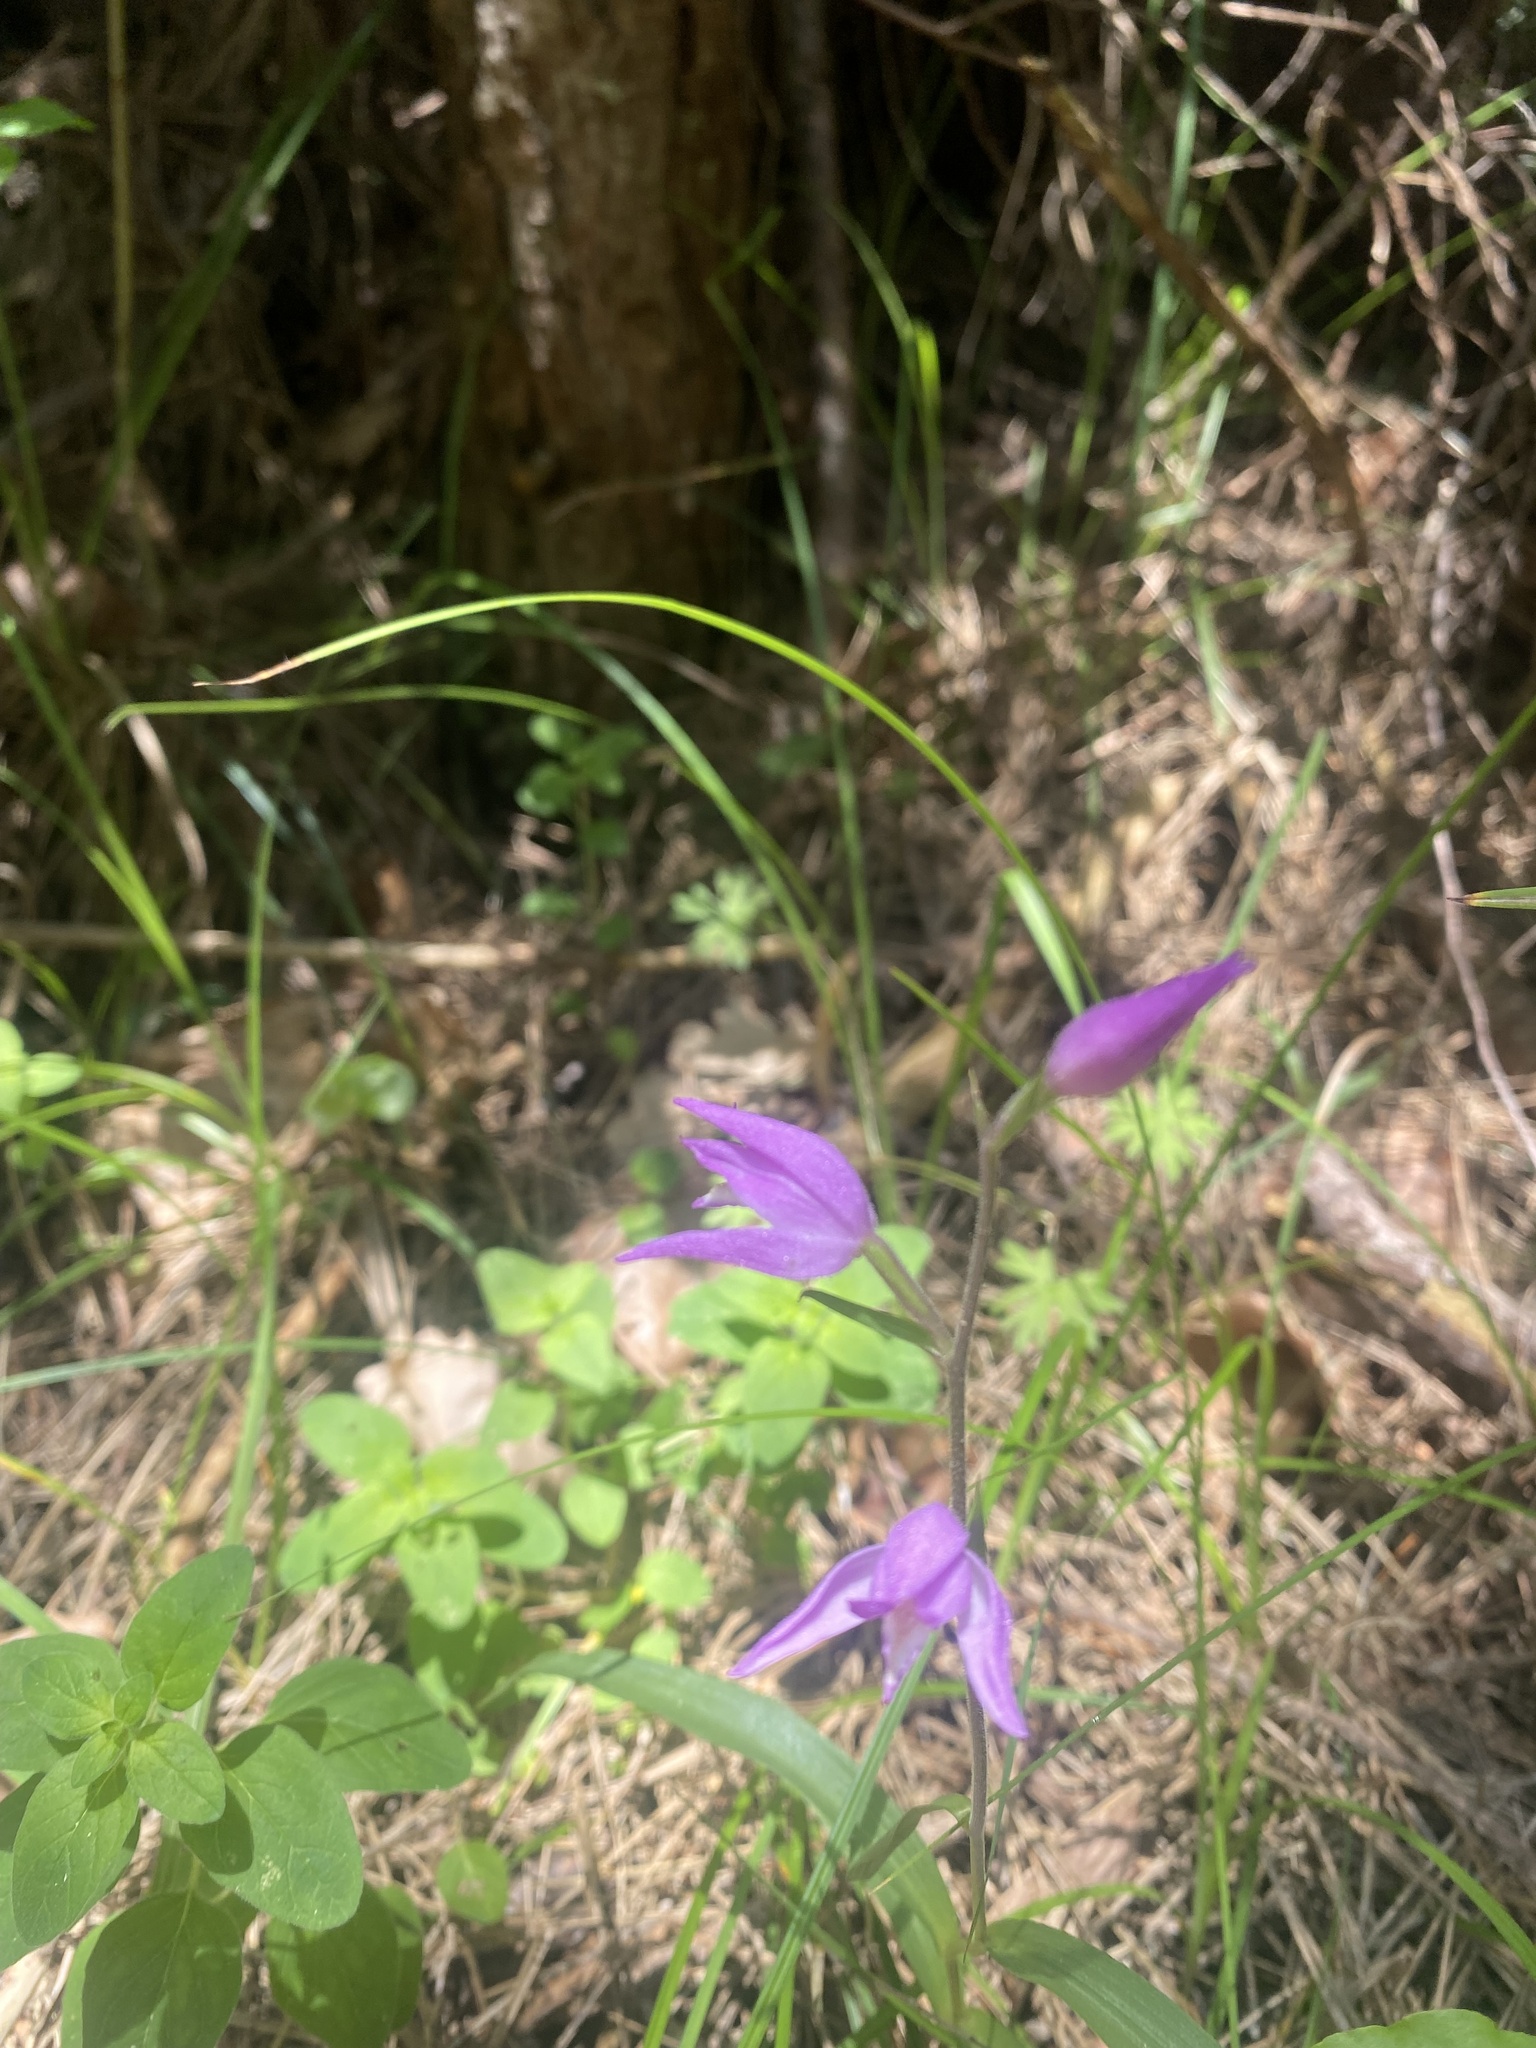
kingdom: Plantae
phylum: Tracheophyta
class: Liliopsida
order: Asparagales
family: Orchidaceae
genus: Cephalanthera
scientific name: Cephalanthera rubra
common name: Red helleborine
